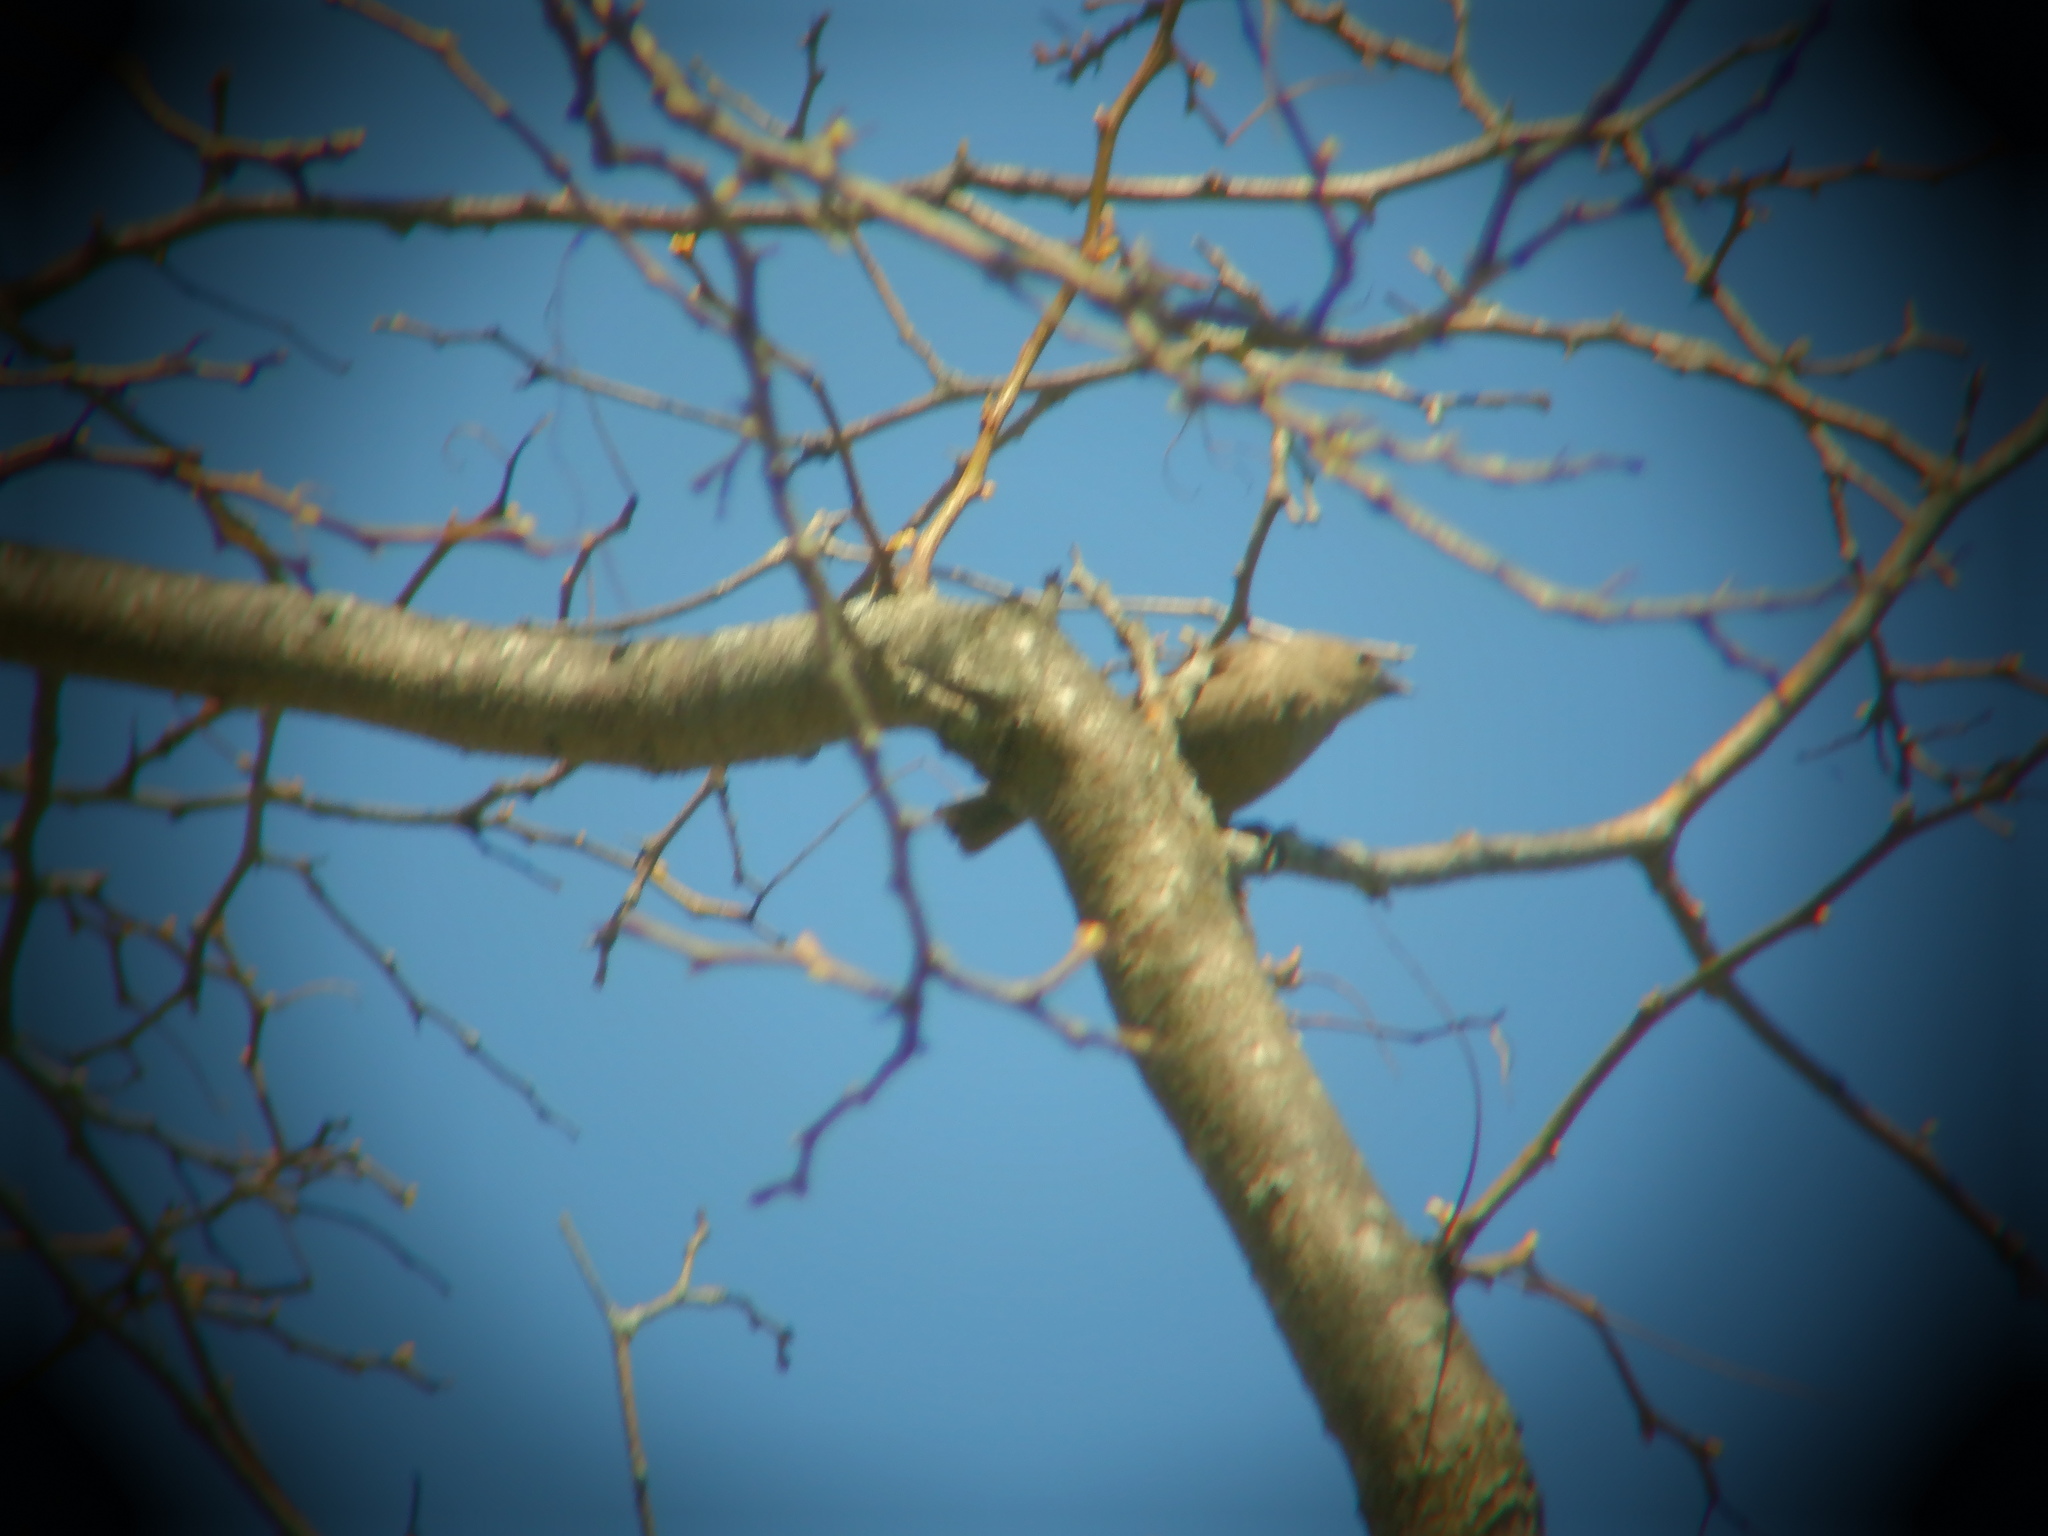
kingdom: Animalia
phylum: Chordata
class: Aves
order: Passeriformes
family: Icteridae
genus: Molothrus
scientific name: Molothrus ater
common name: Brown-headed cowbird
